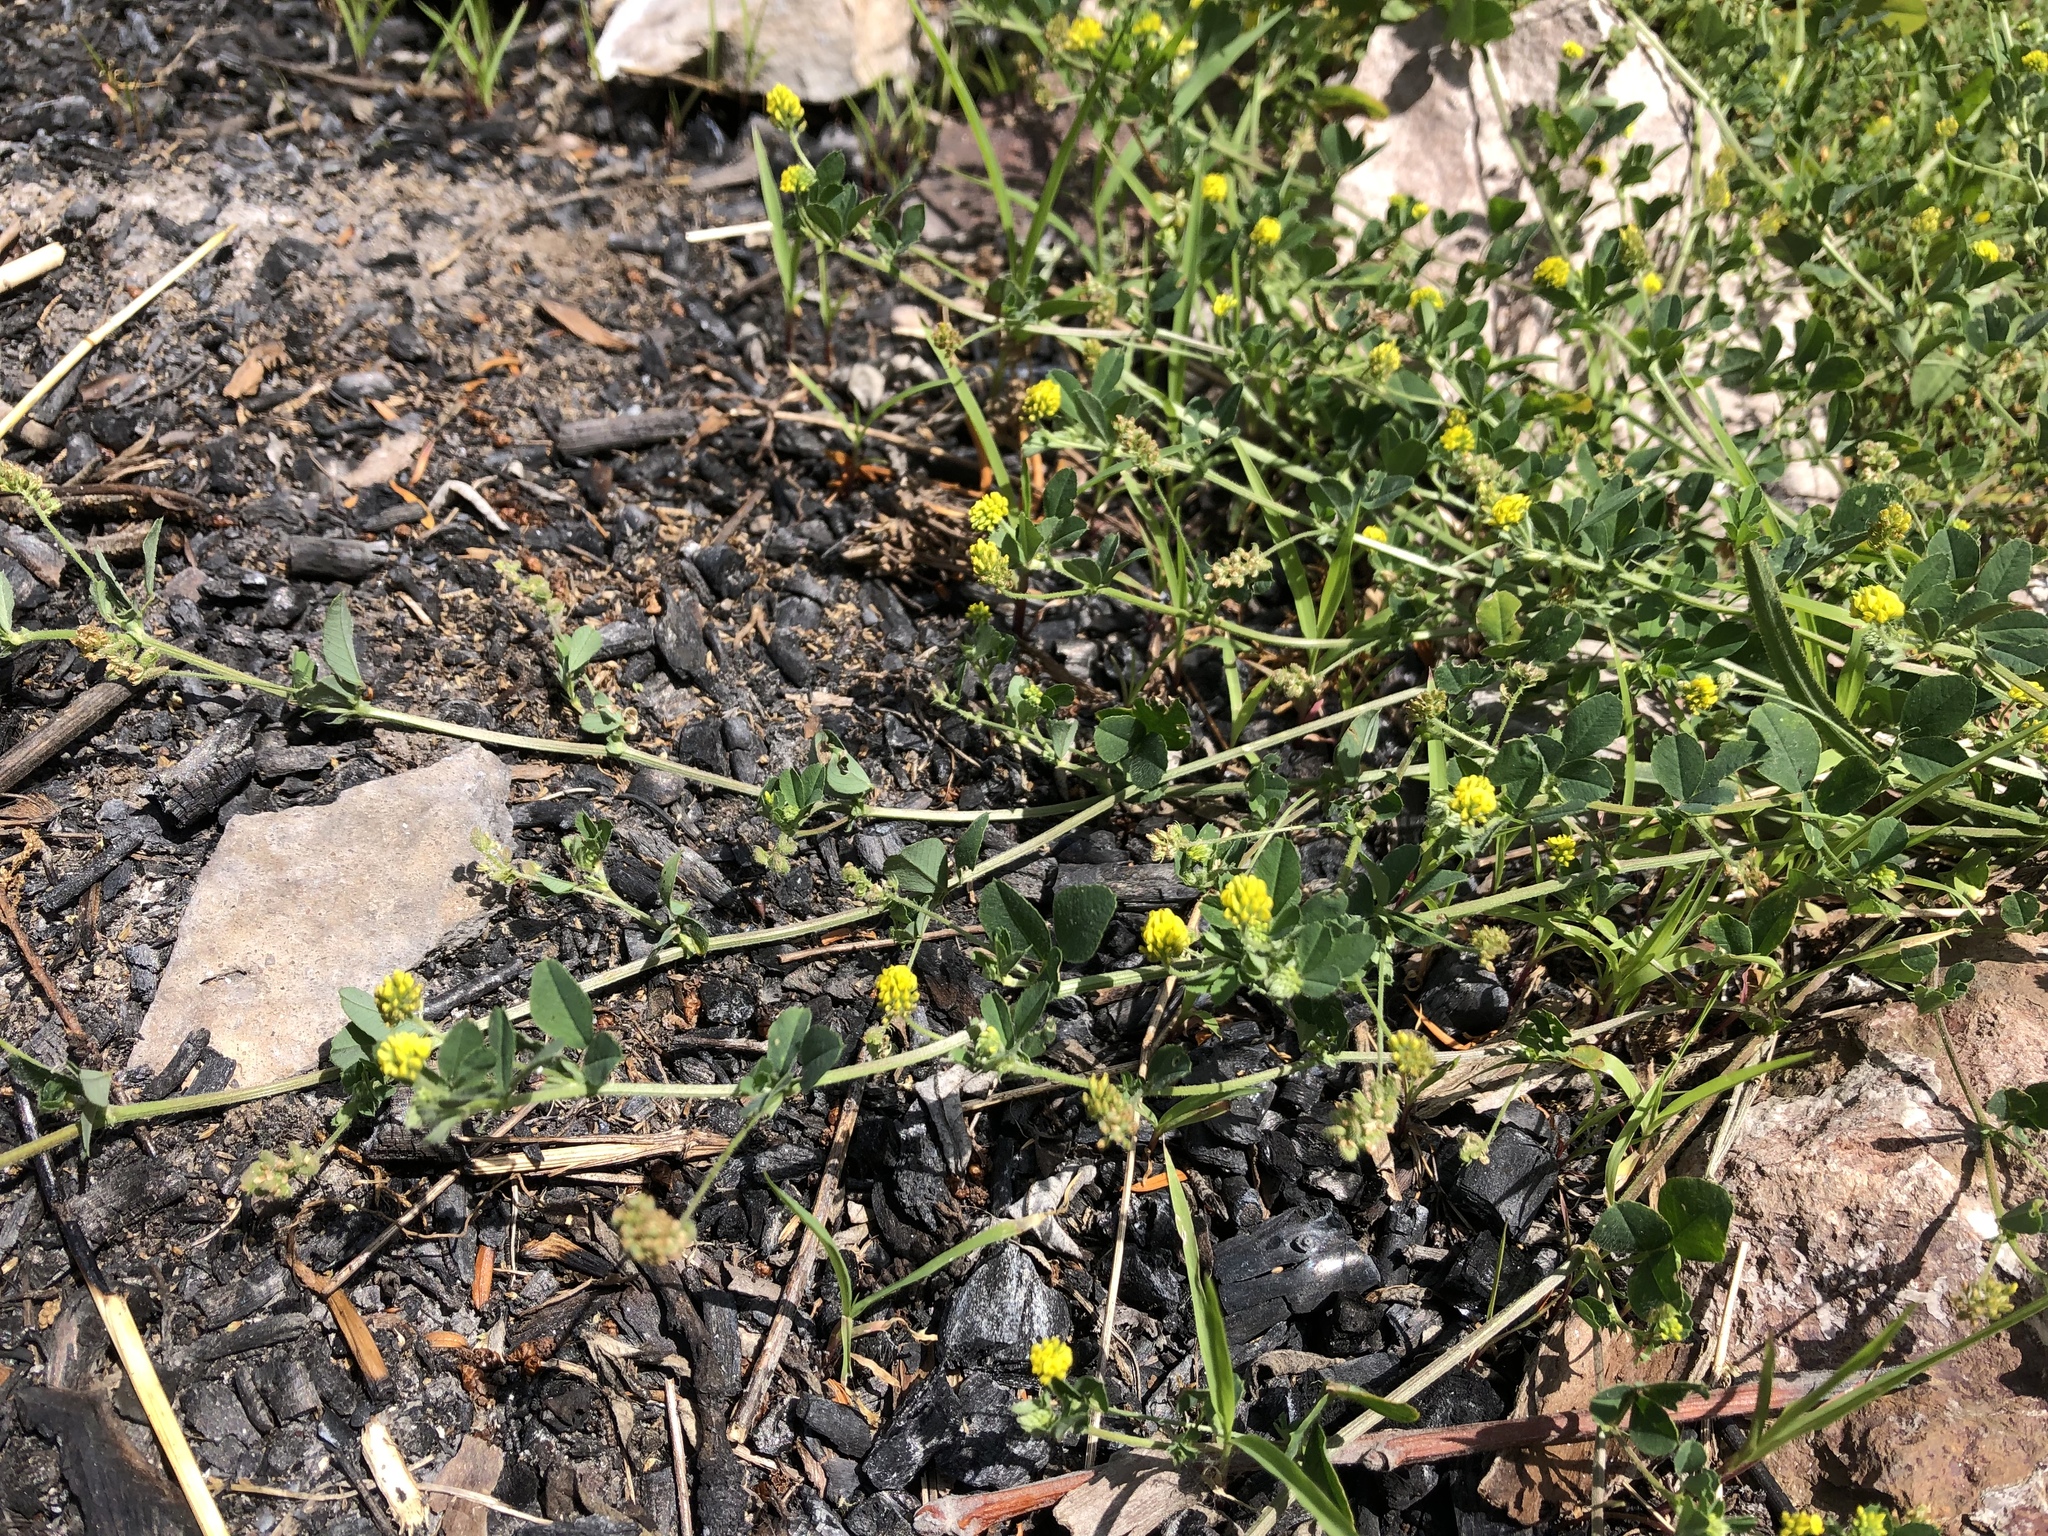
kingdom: Plantae
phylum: Tracheophyta
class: Magnoliopsida
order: Fabales
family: Fabaceae
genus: Medicago
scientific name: Medicago lupulina
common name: Black medick
